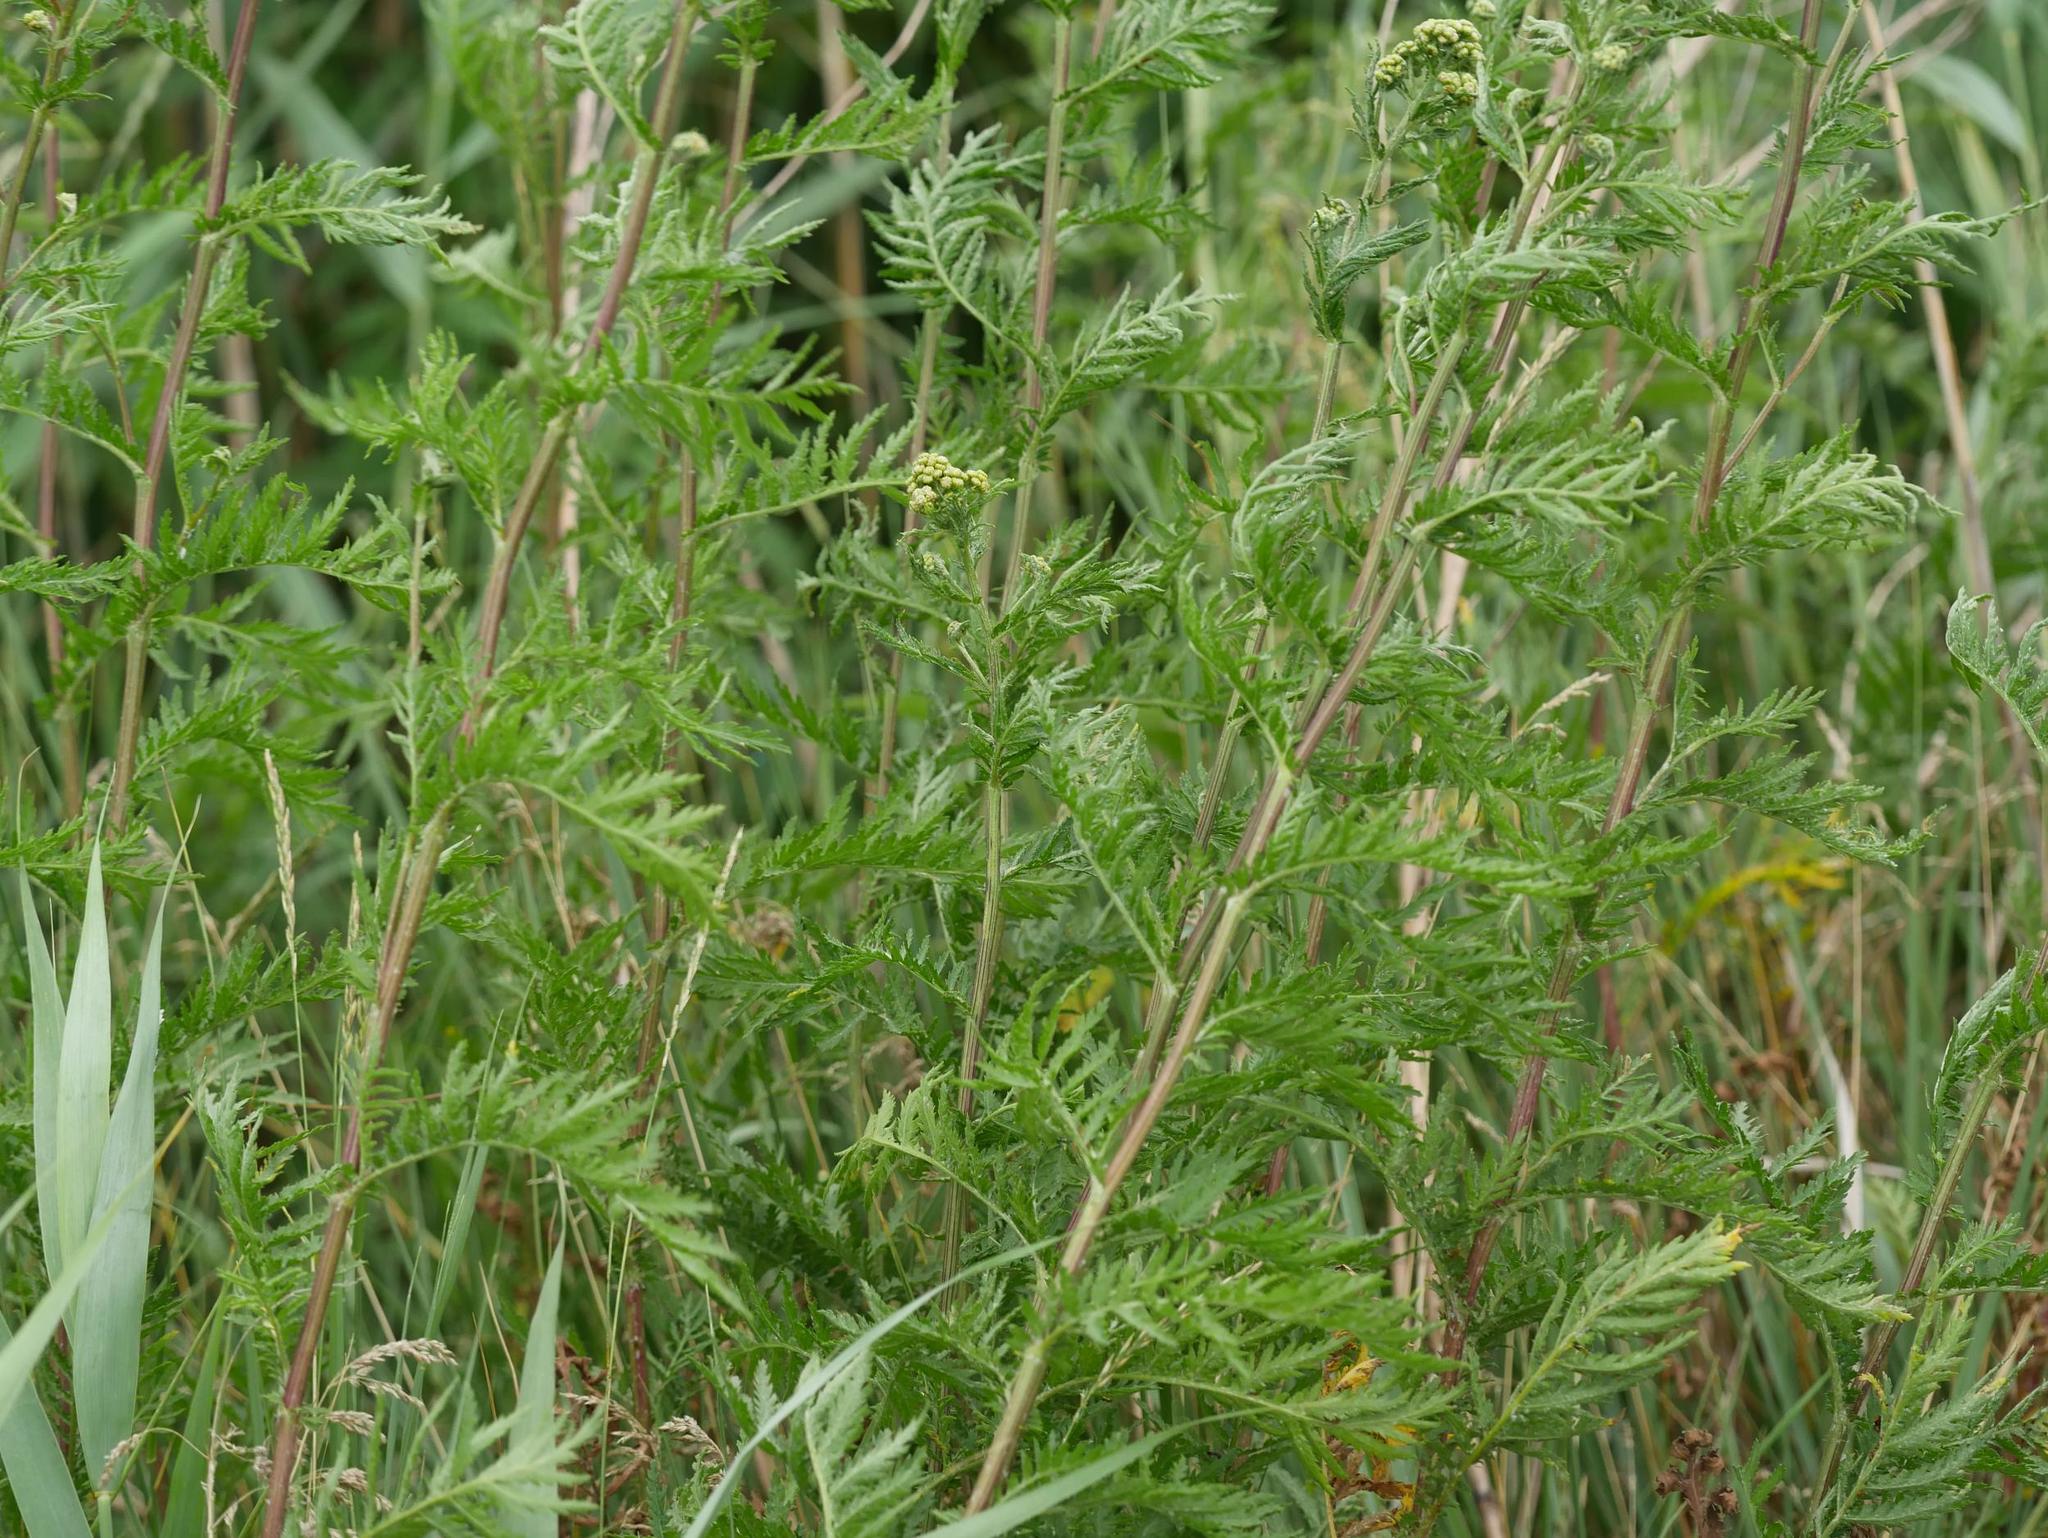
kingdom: Plantae
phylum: Tracheophyta
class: Magnoliopsida
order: Asterales
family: Asteraceae
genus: Tanacetum
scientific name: Tanacetum vulgare
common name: Common tansy
